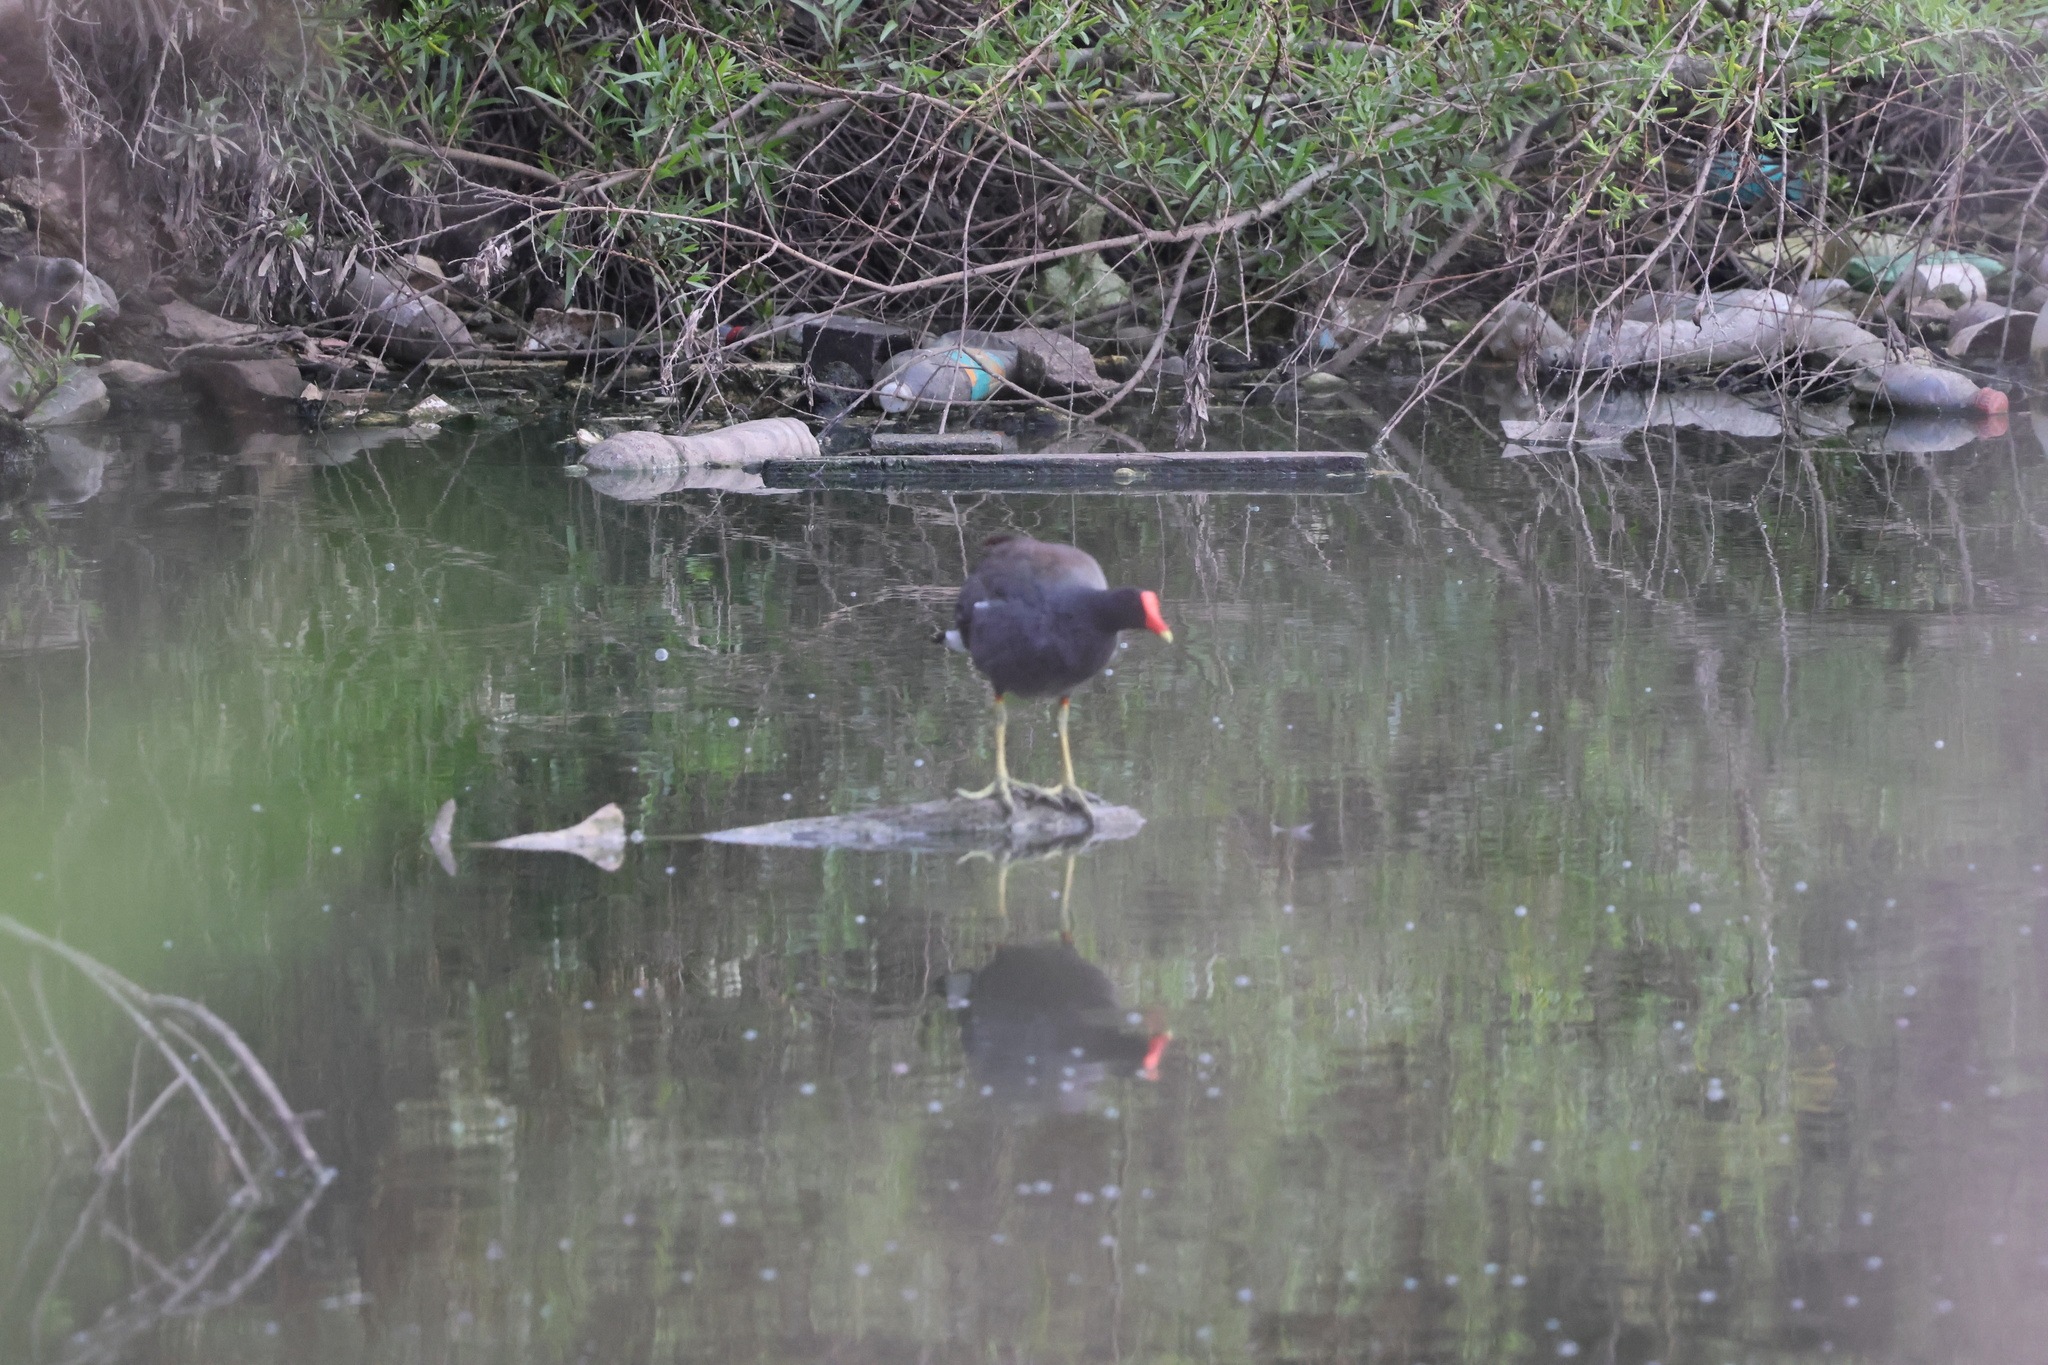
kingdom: Animalia
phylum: Chordata
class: Aves
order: Gruiformes
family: Rallidae
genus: Gallinula
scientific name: Gallinula chloropus
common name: Common moorhen
